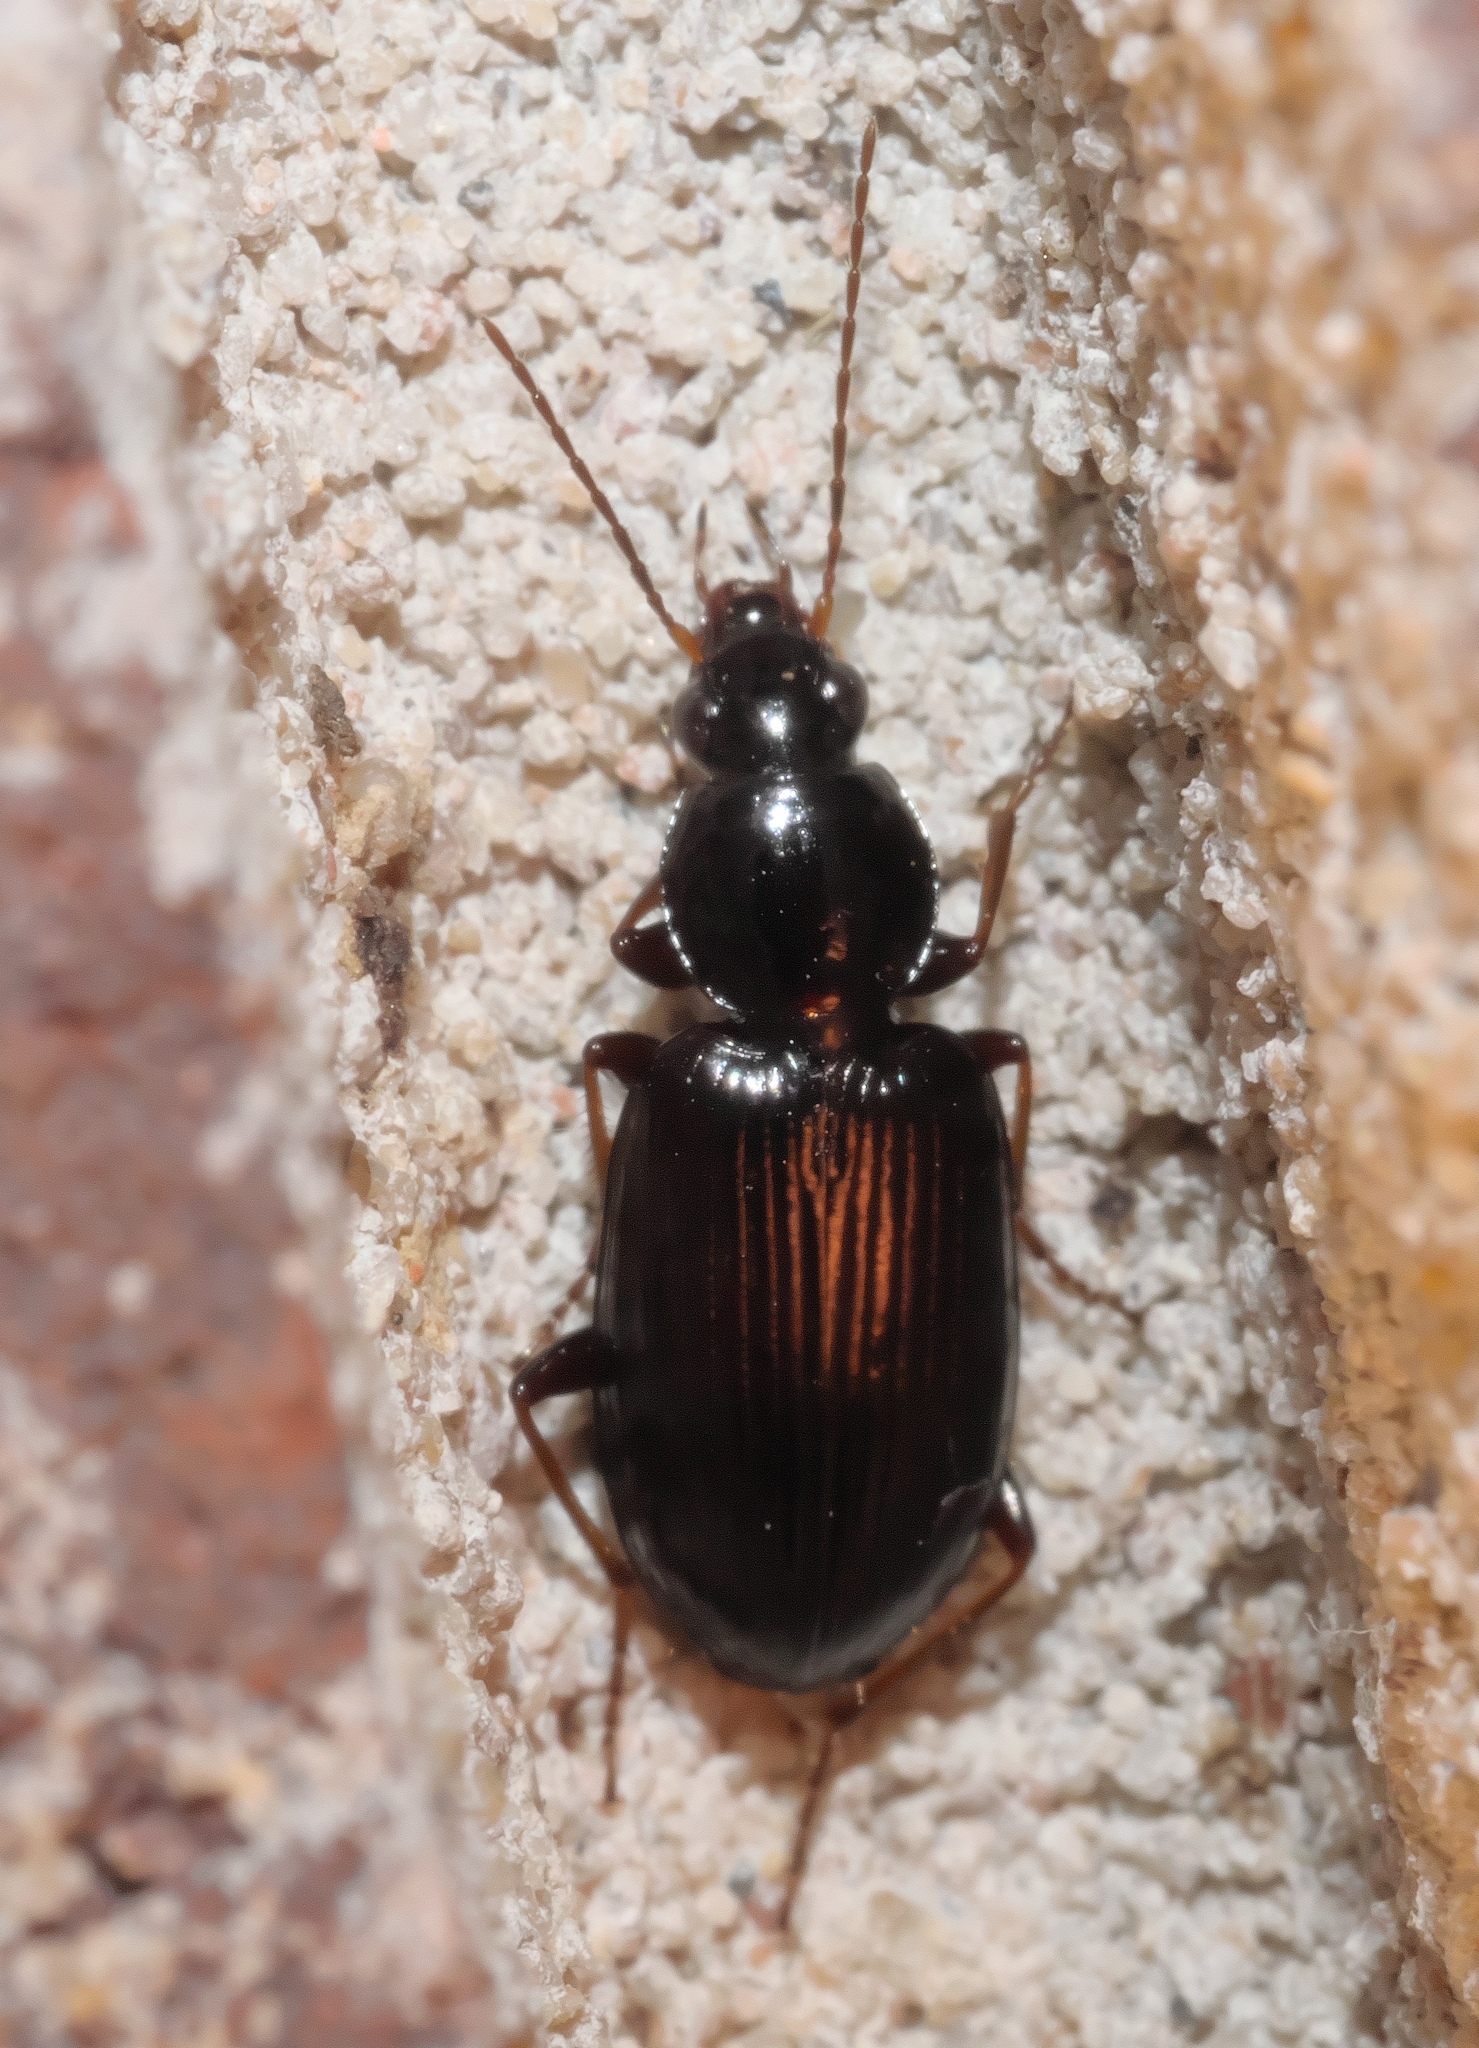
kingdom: Animalia
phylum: Arthropoda
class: Insecta
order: Coleoptera
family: Carabidae
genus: Agonum
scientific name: Agonum punctiforme
